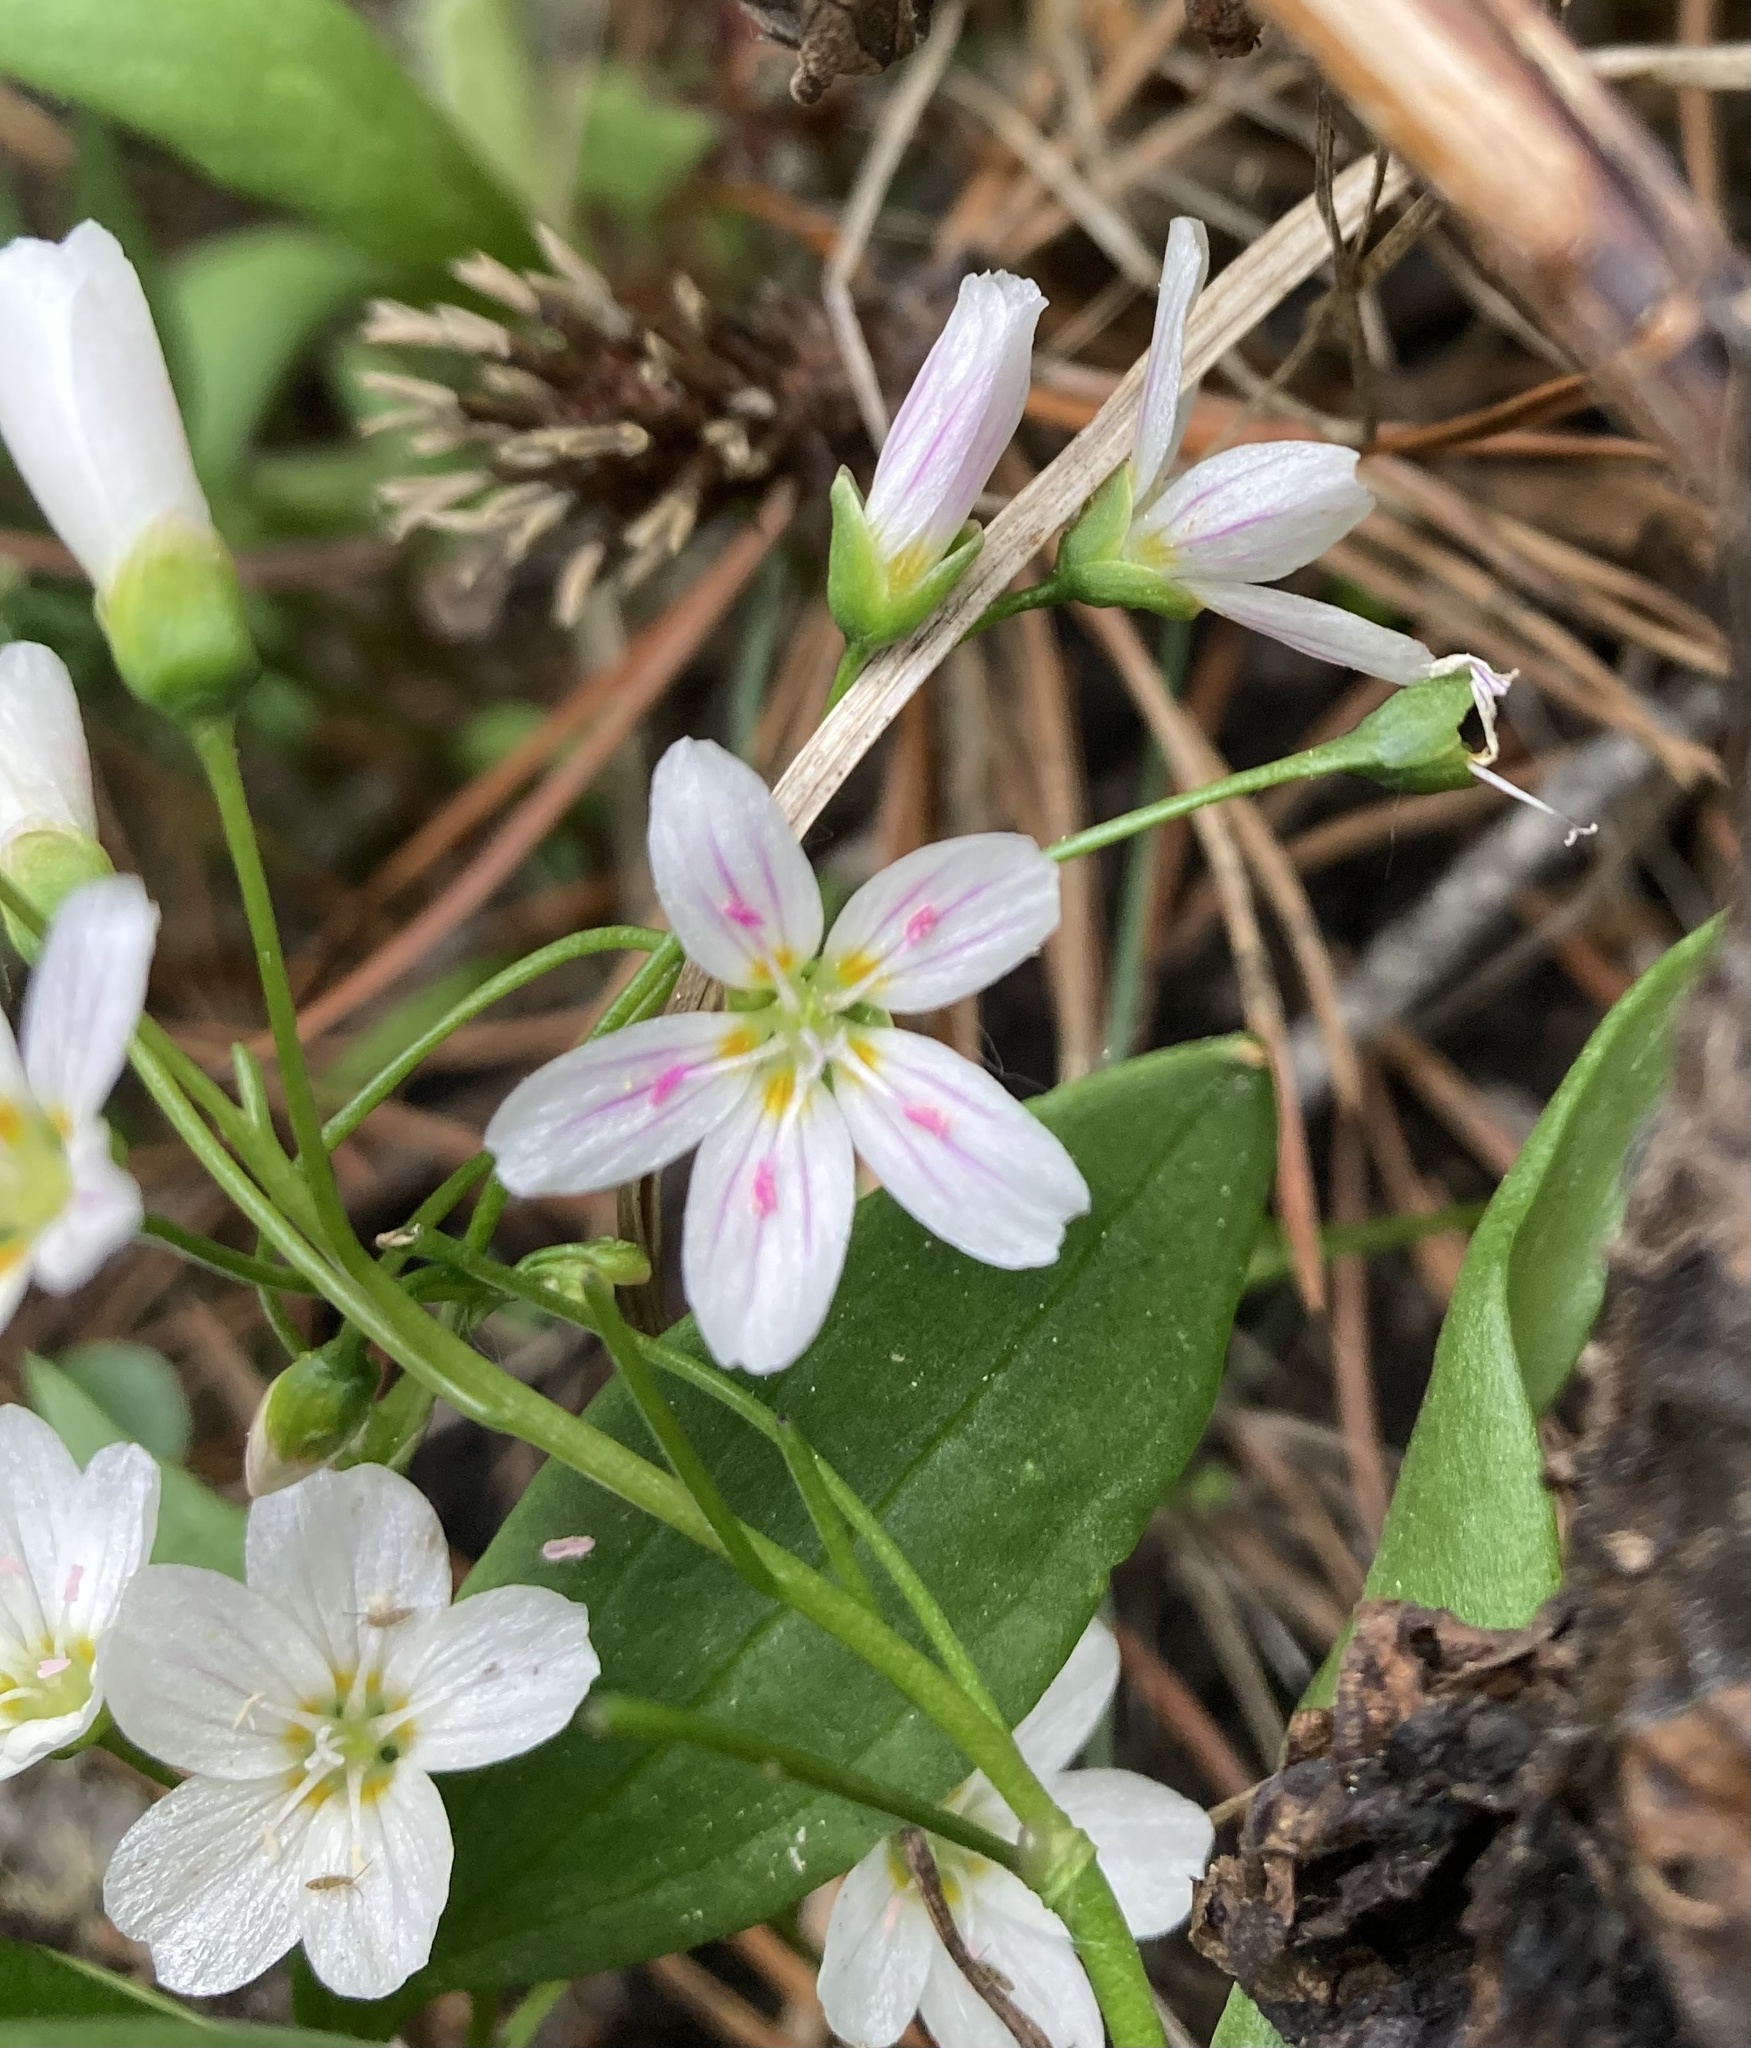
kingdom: Plantae
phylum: Tracheophyta
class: Magnoliopsida
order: Caryophyllales
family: Montiaceae
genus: Claytonia
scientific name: Claytonia lanceolata
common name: Western spring-beauty
